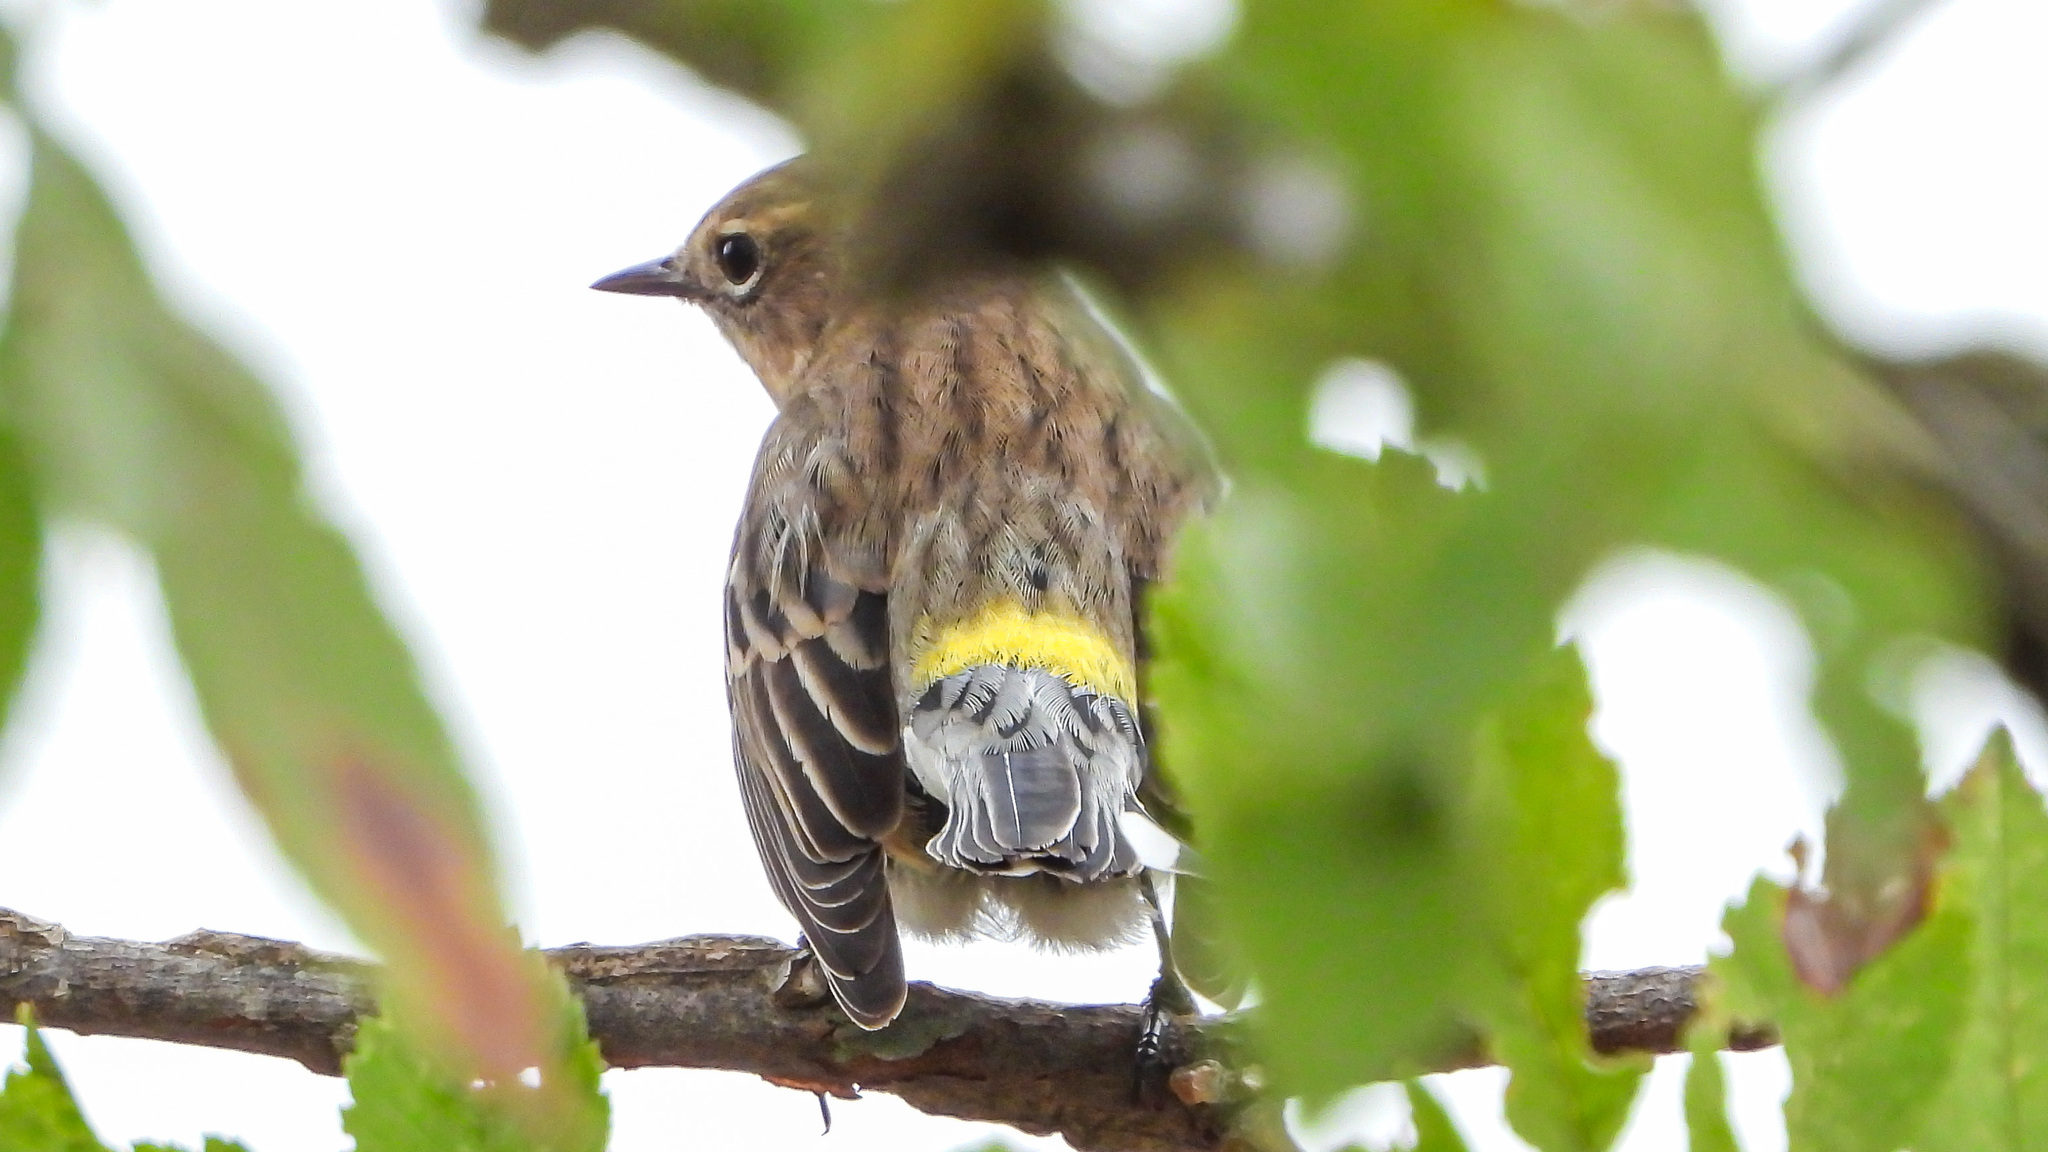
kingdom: Animalia
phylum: Chordata
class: Aves
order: Passeriformes
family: Parulidae
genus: Setophaga
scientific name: Setophaga coronata
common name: Myrtle warbler
